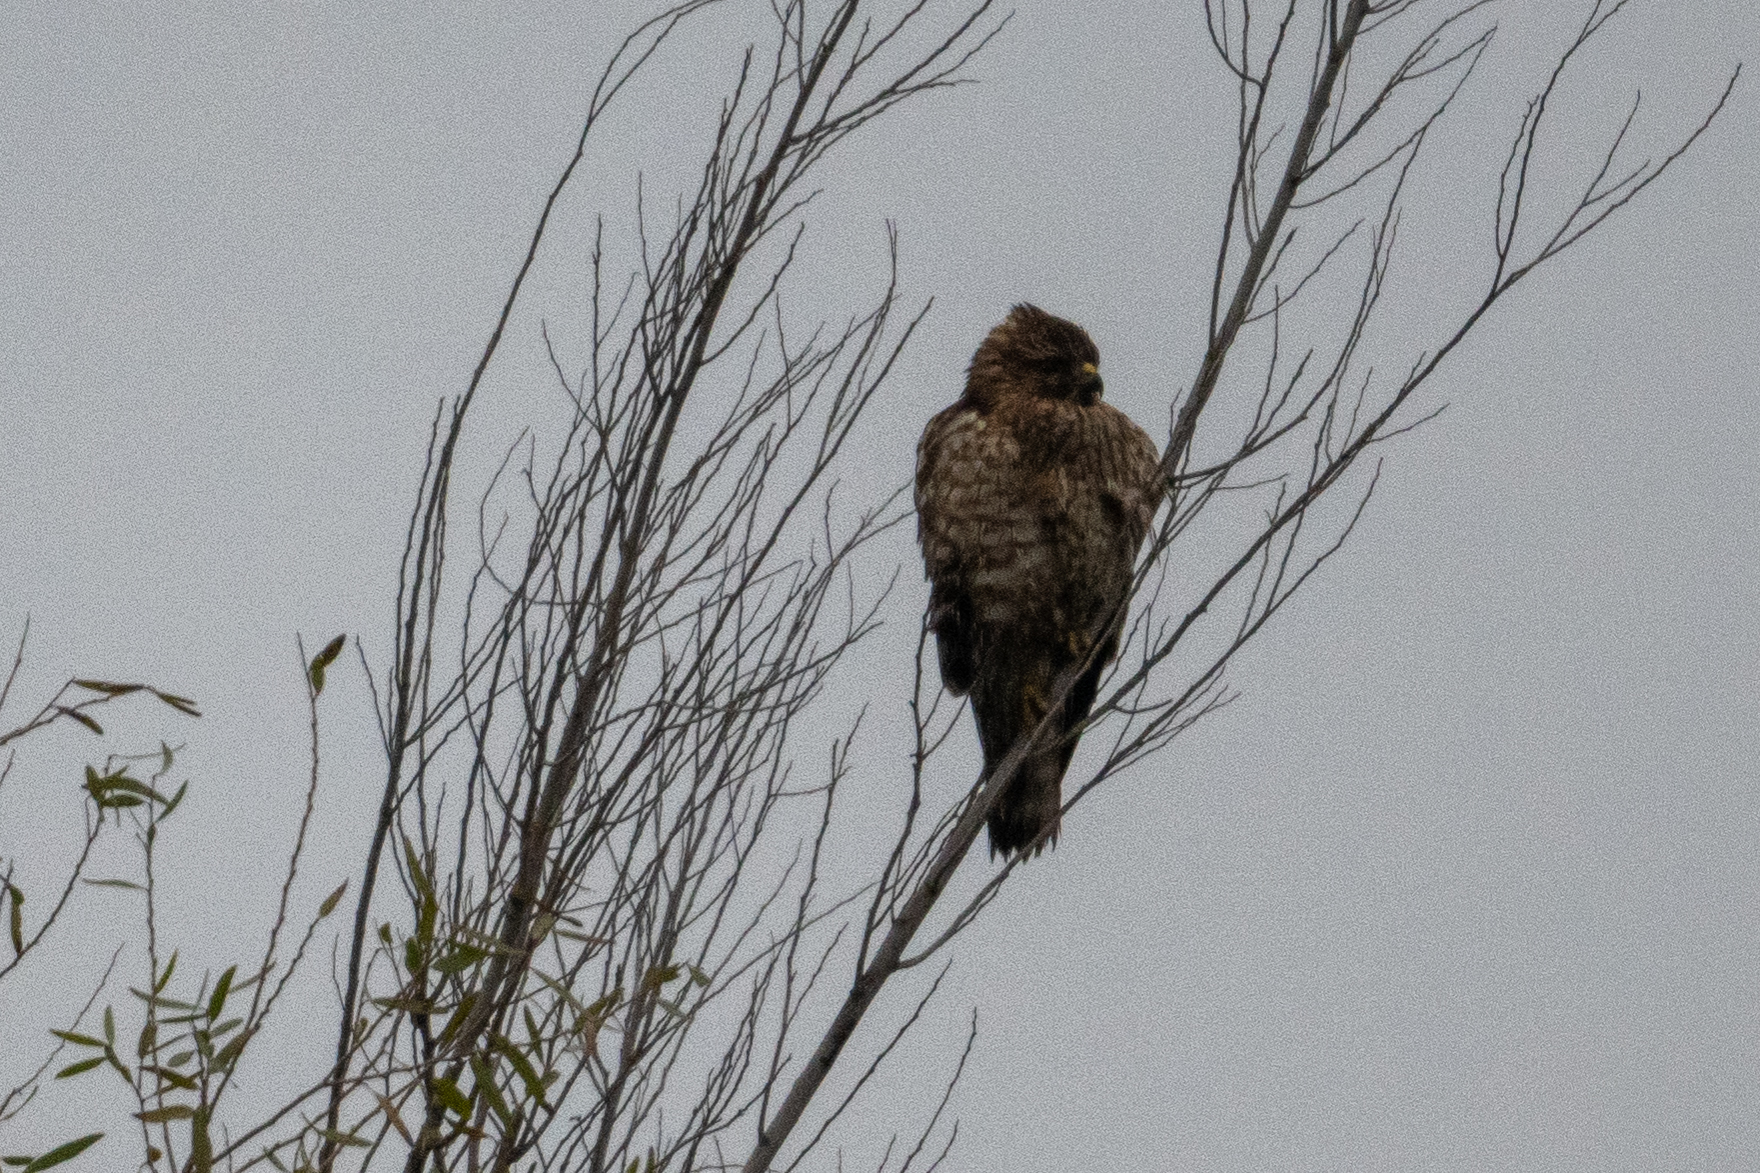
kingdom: Animalia
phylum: Chordata
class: Aves
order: Accipitriformes
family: Accipitridae
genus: Buteo
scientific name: Buteo lineatus
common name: Red-shouldered hawk
